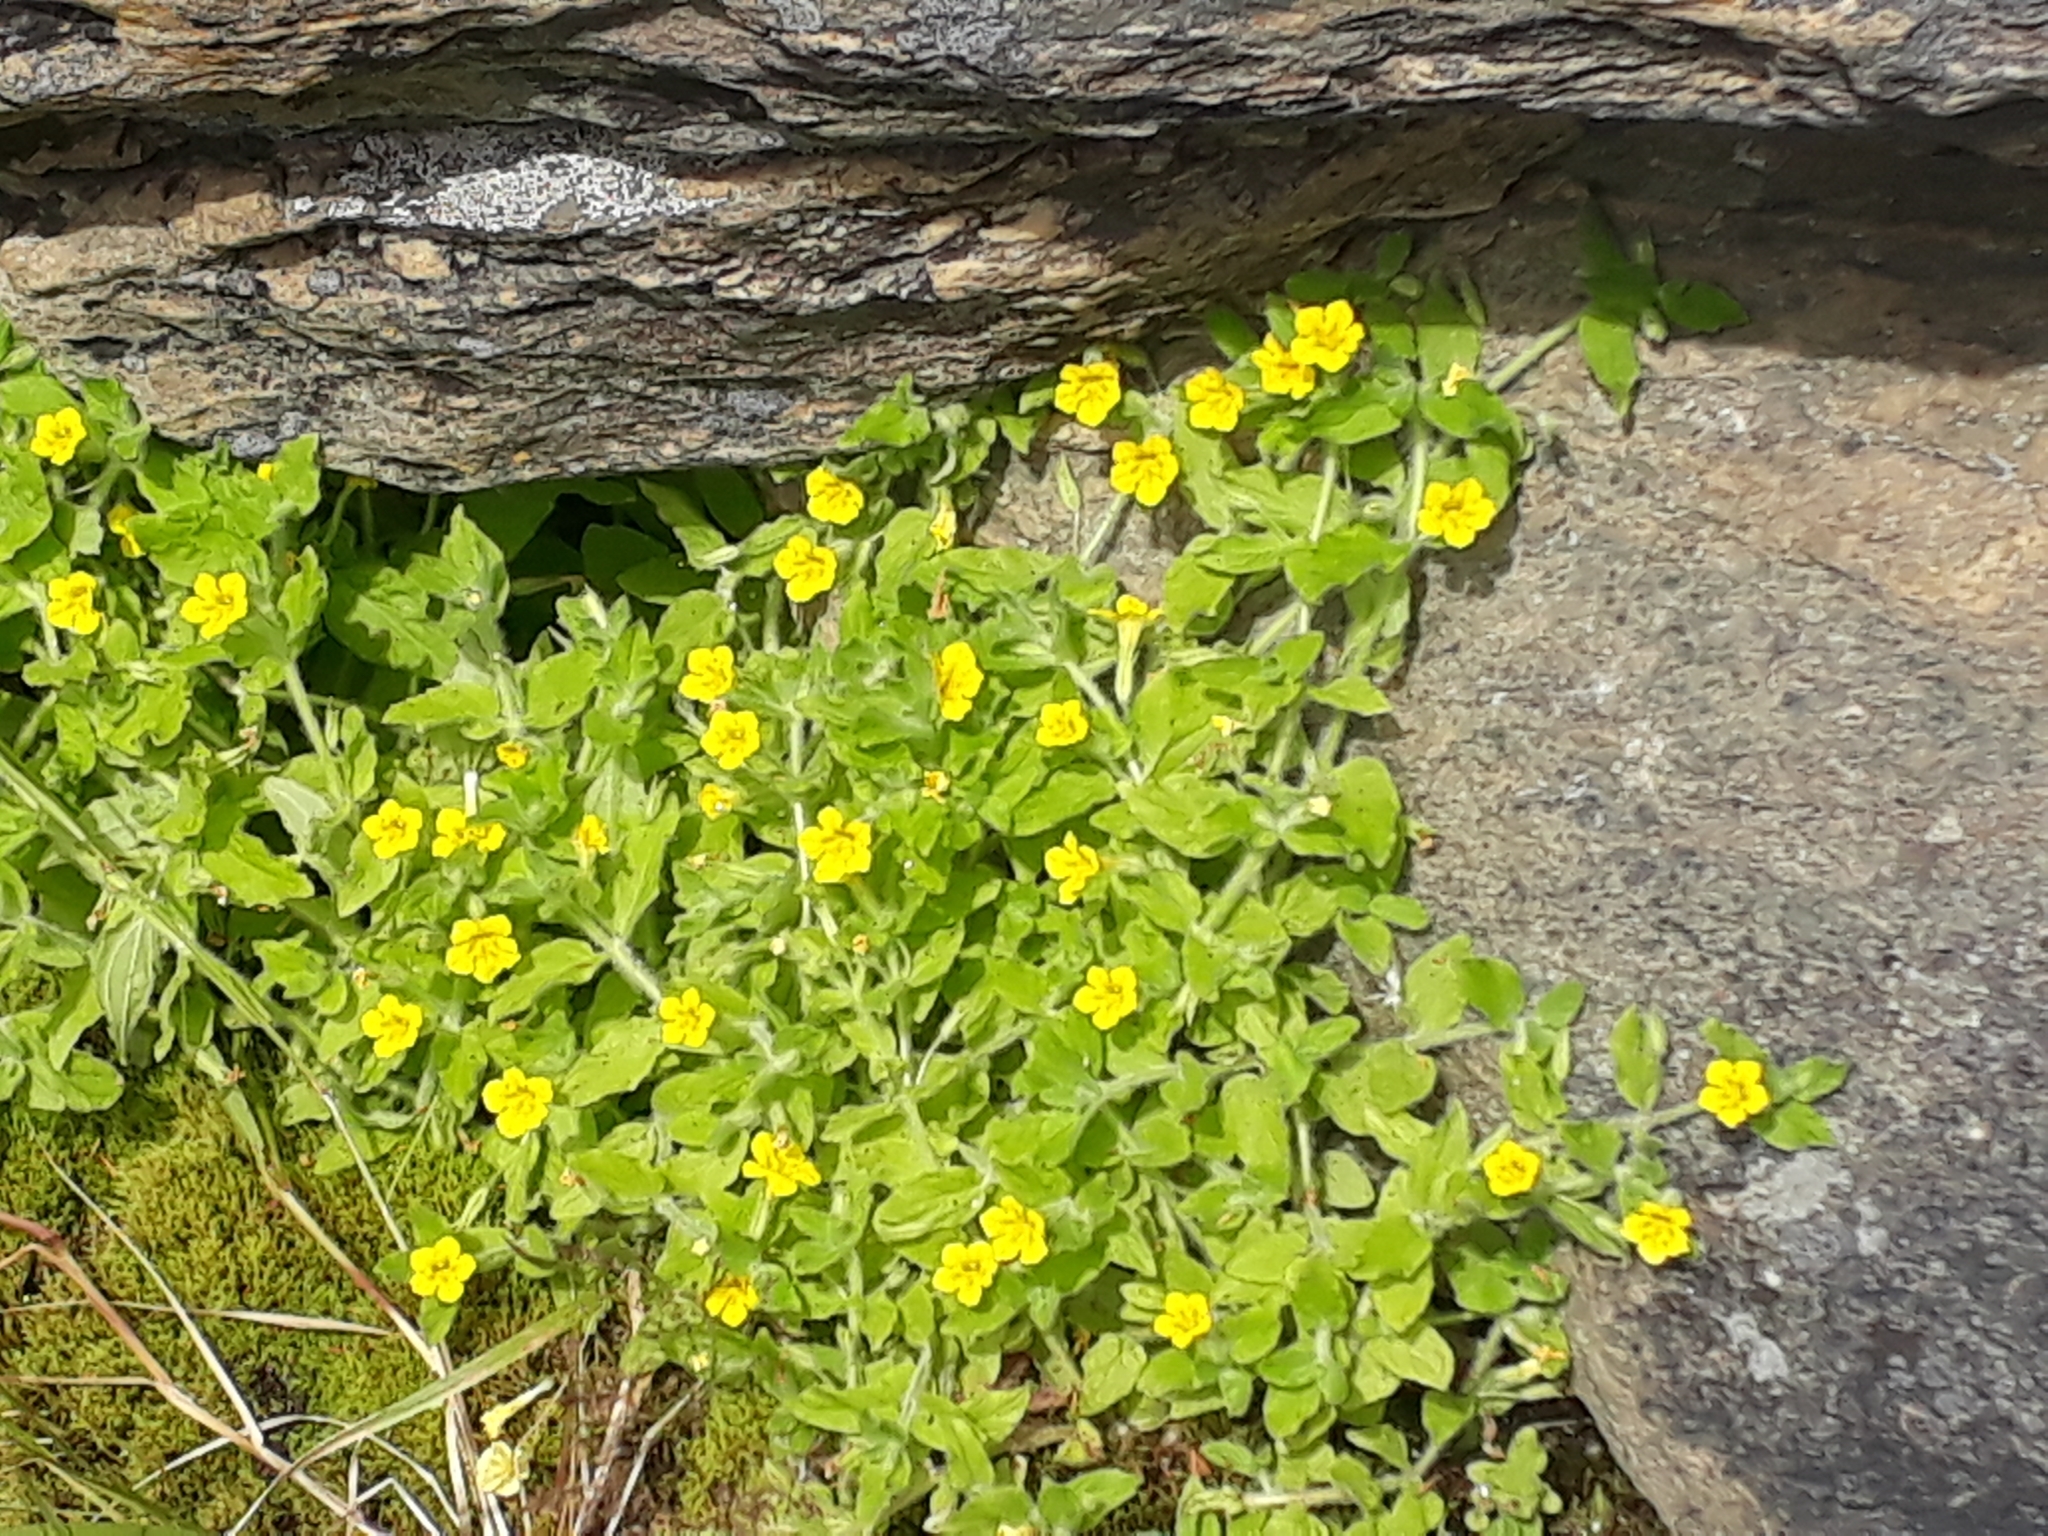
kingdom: Plantae
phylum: Tracheophyta
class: Magnoliopsida
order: Lamiales
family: Phrymaceae
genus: Erythranthe
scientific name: Erythranthe moschata
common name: Muskflower
